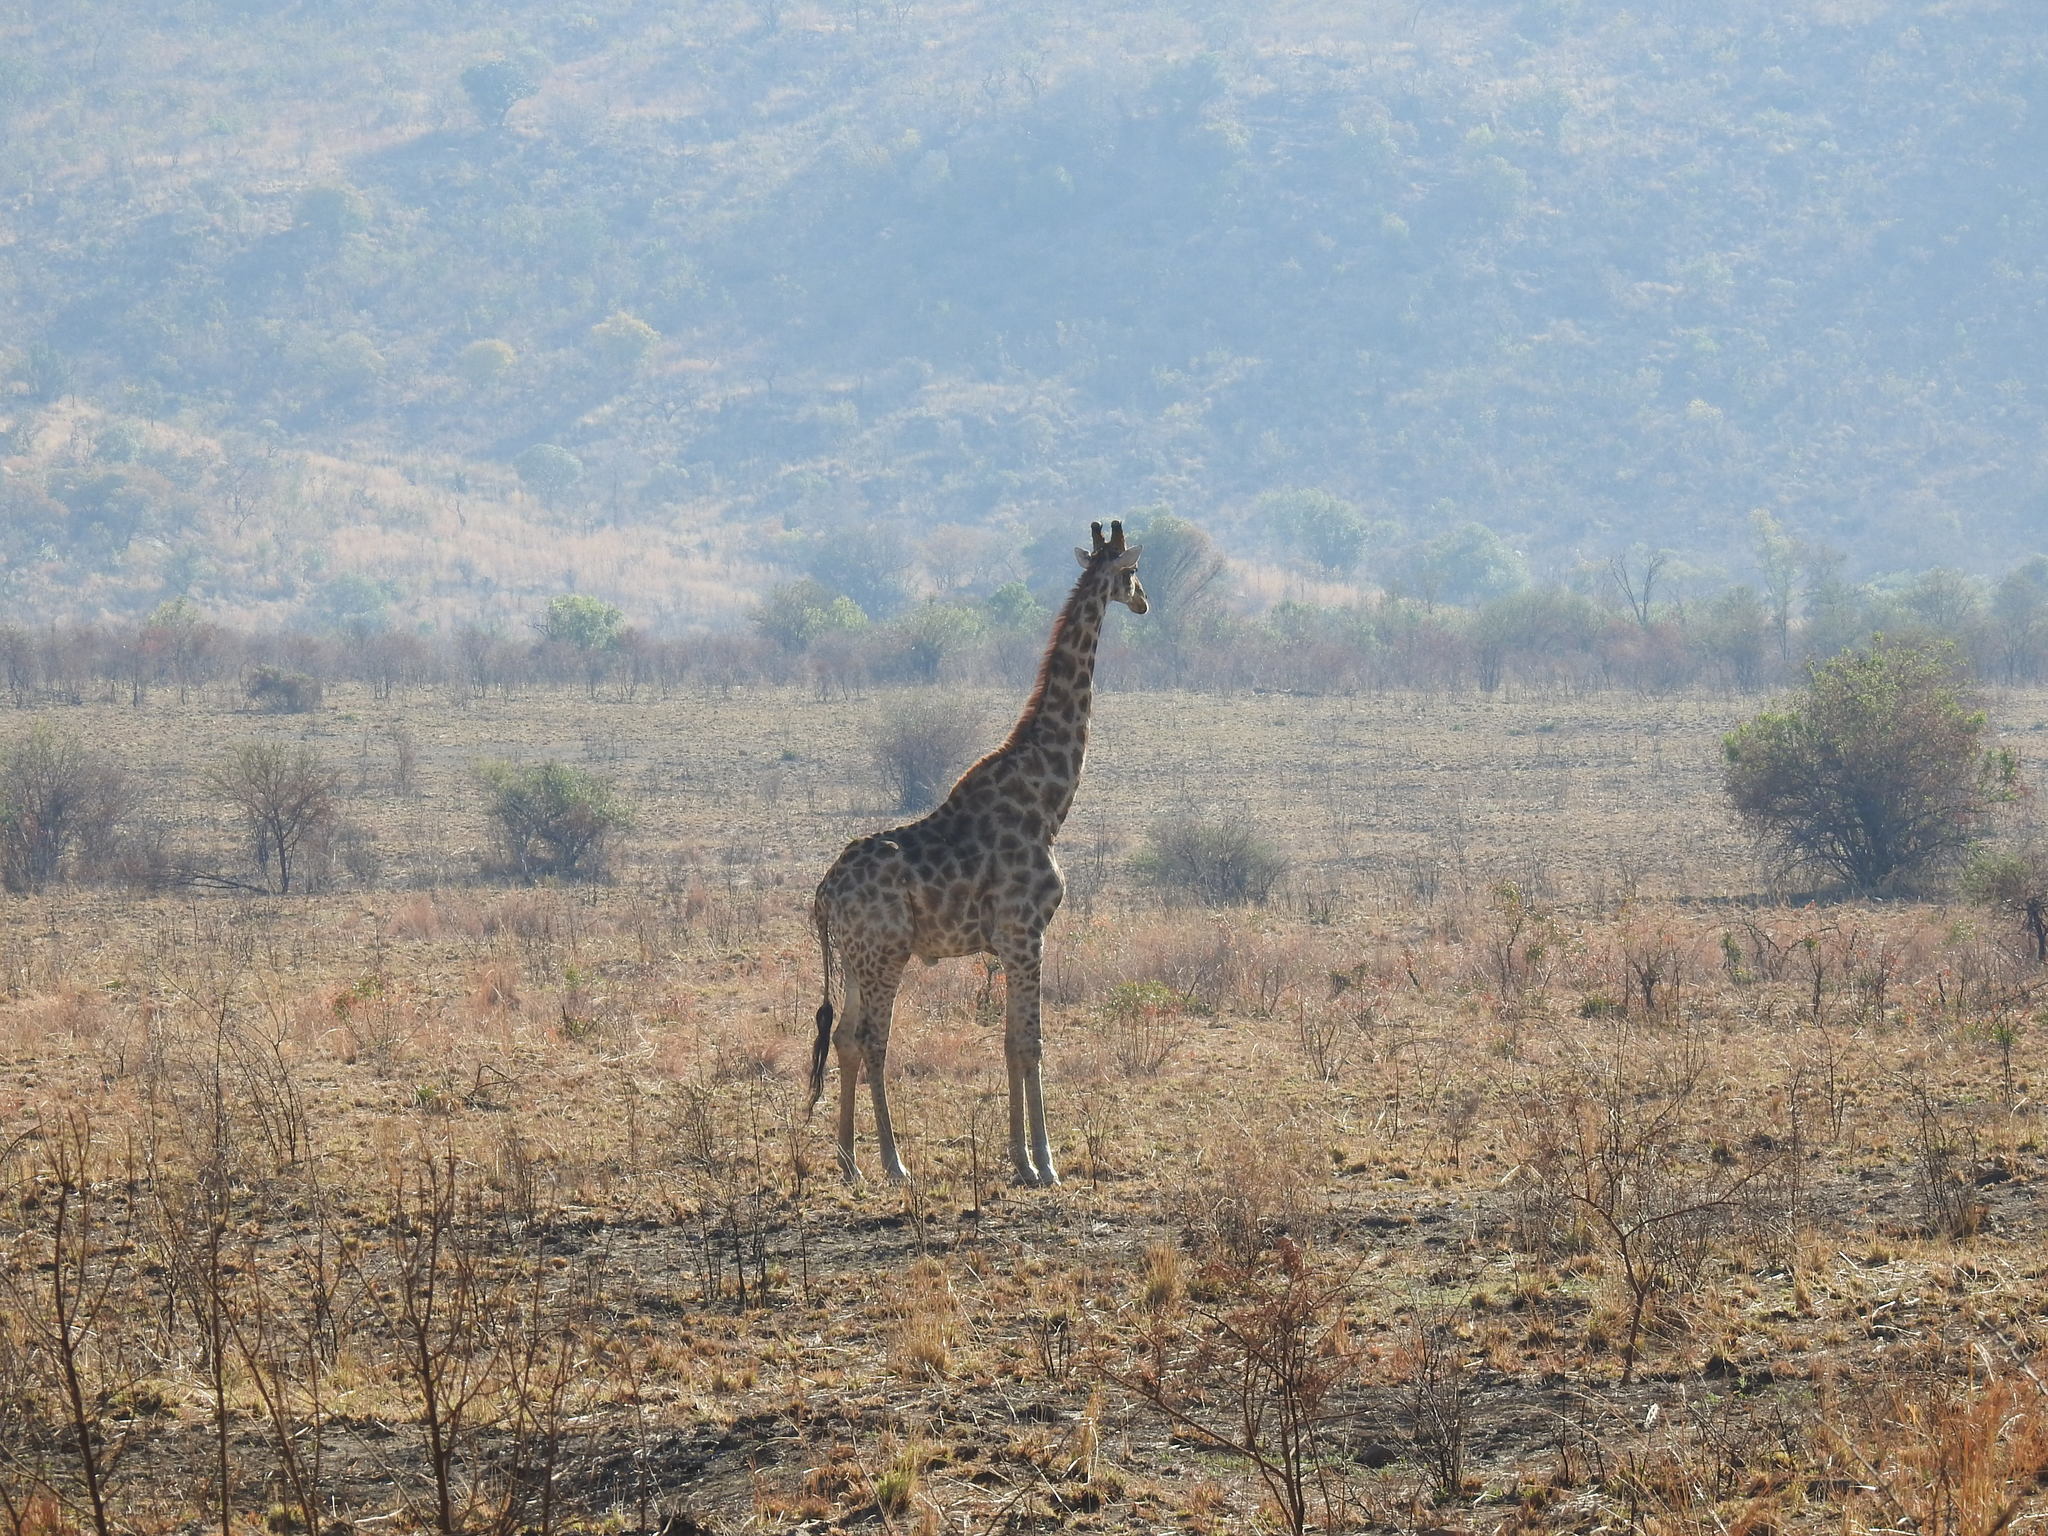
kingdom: Animalia
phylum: Chordata
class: Mammalia
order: Artiodactyla
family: Giraffidae
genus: Giraffa
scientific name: Giraffa giraffa
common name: Southern giraffe
